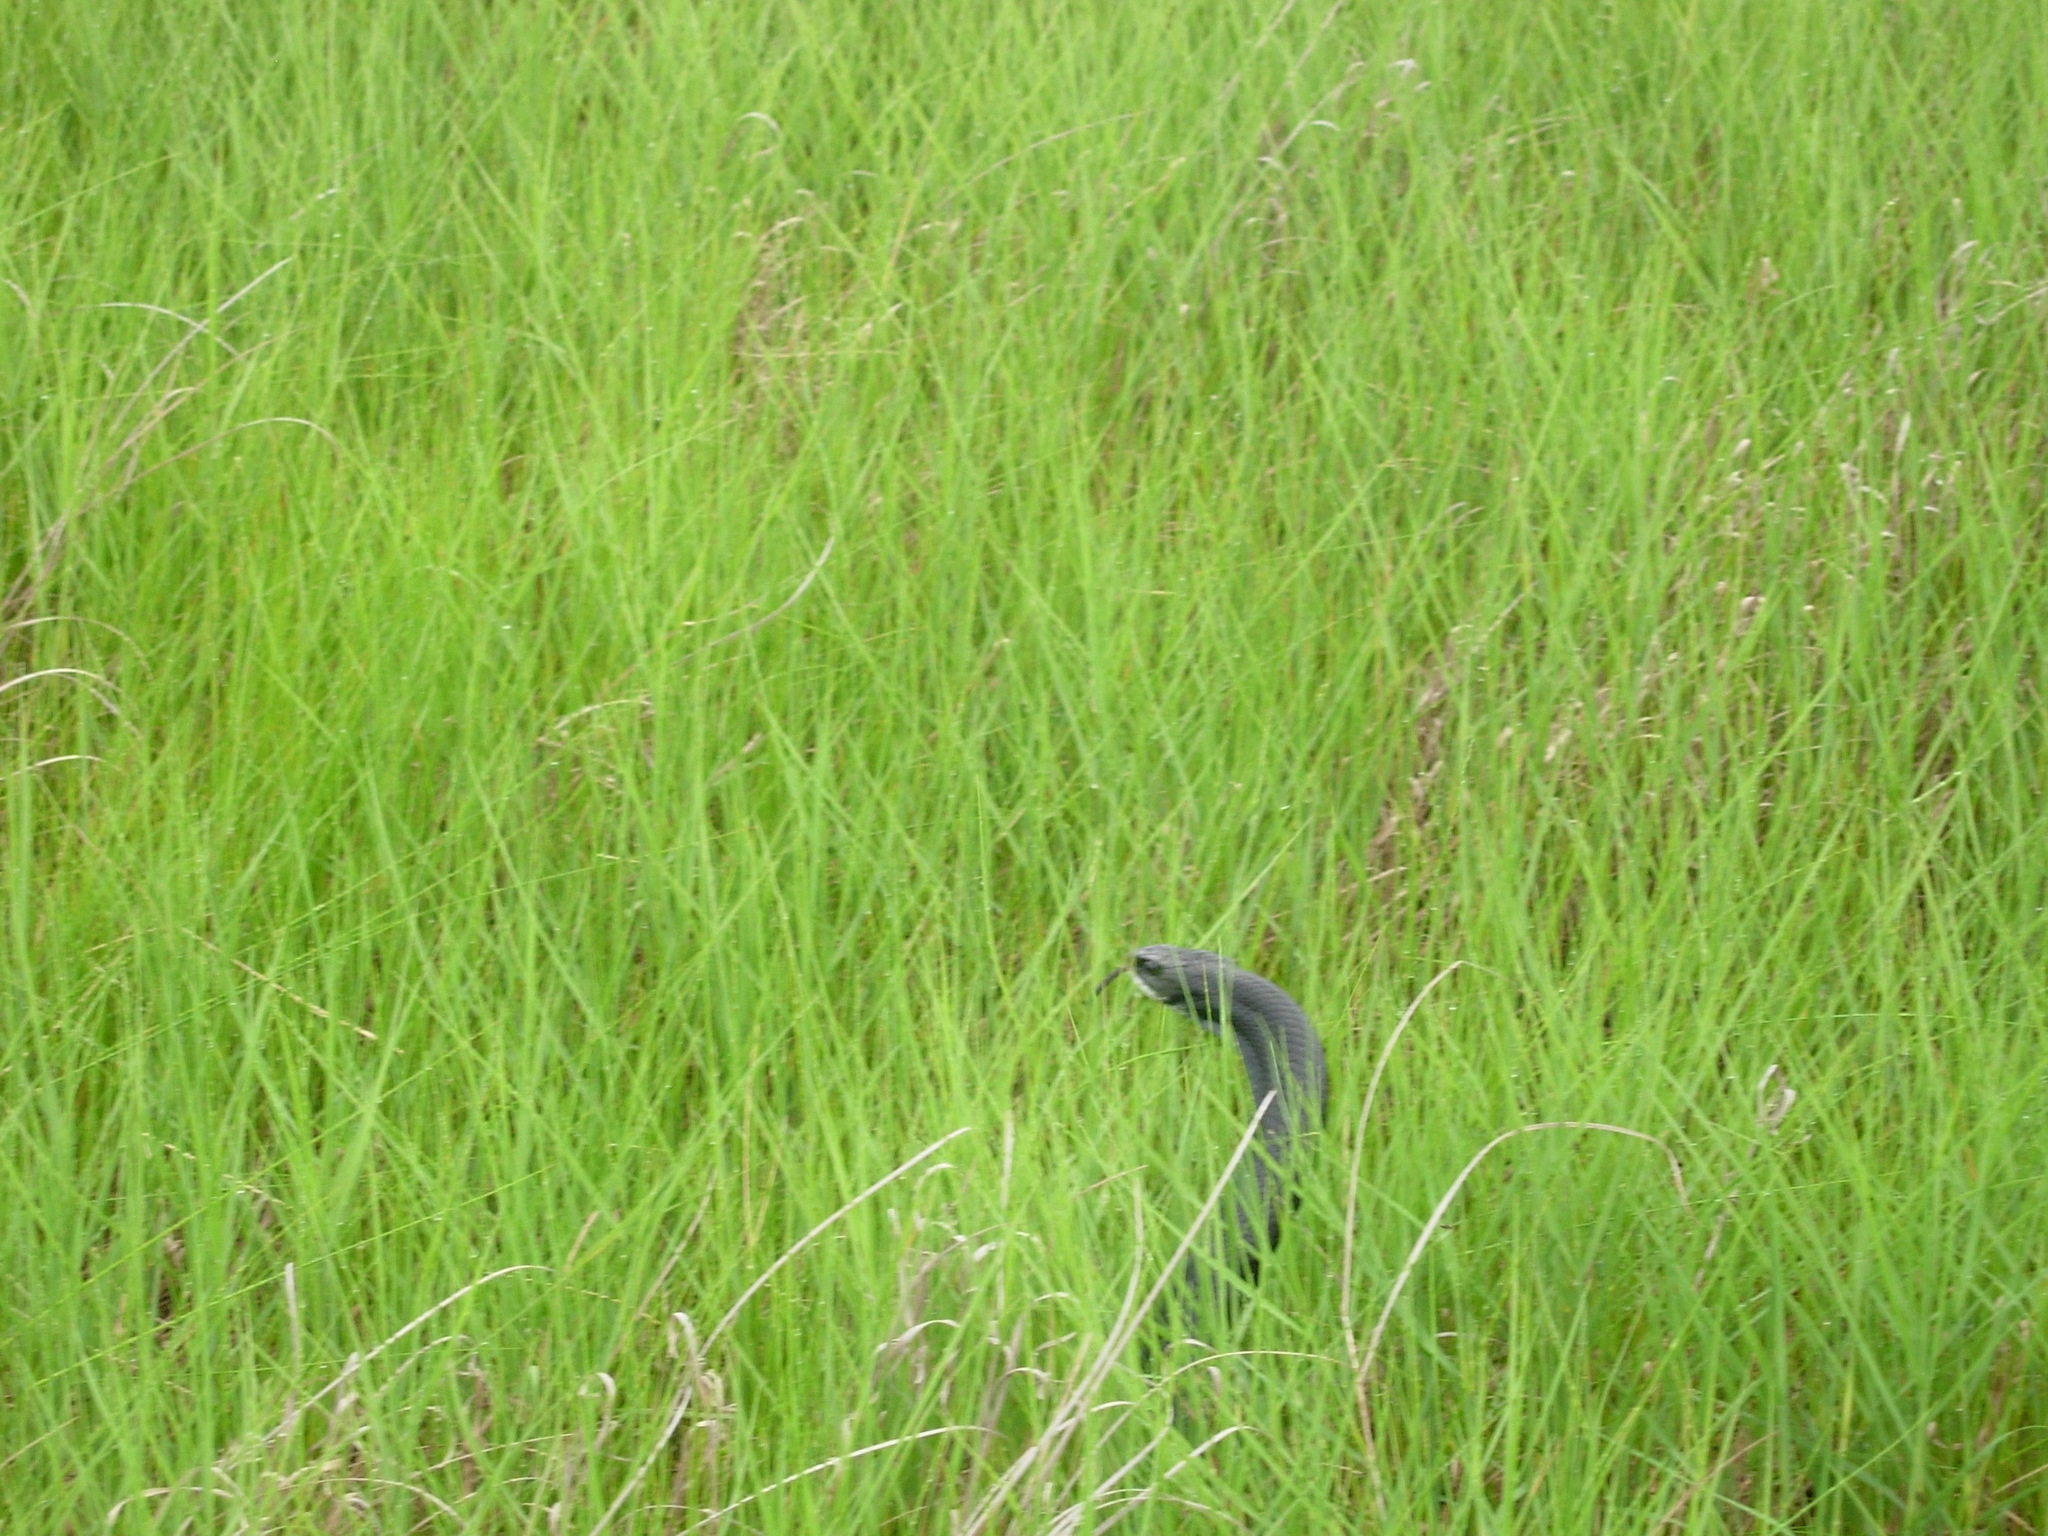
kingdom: Animalia
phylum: Chordata
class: Squamata
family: Colubridae
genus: Coluber
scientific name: Coluber constrictor
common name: Eastern racer
